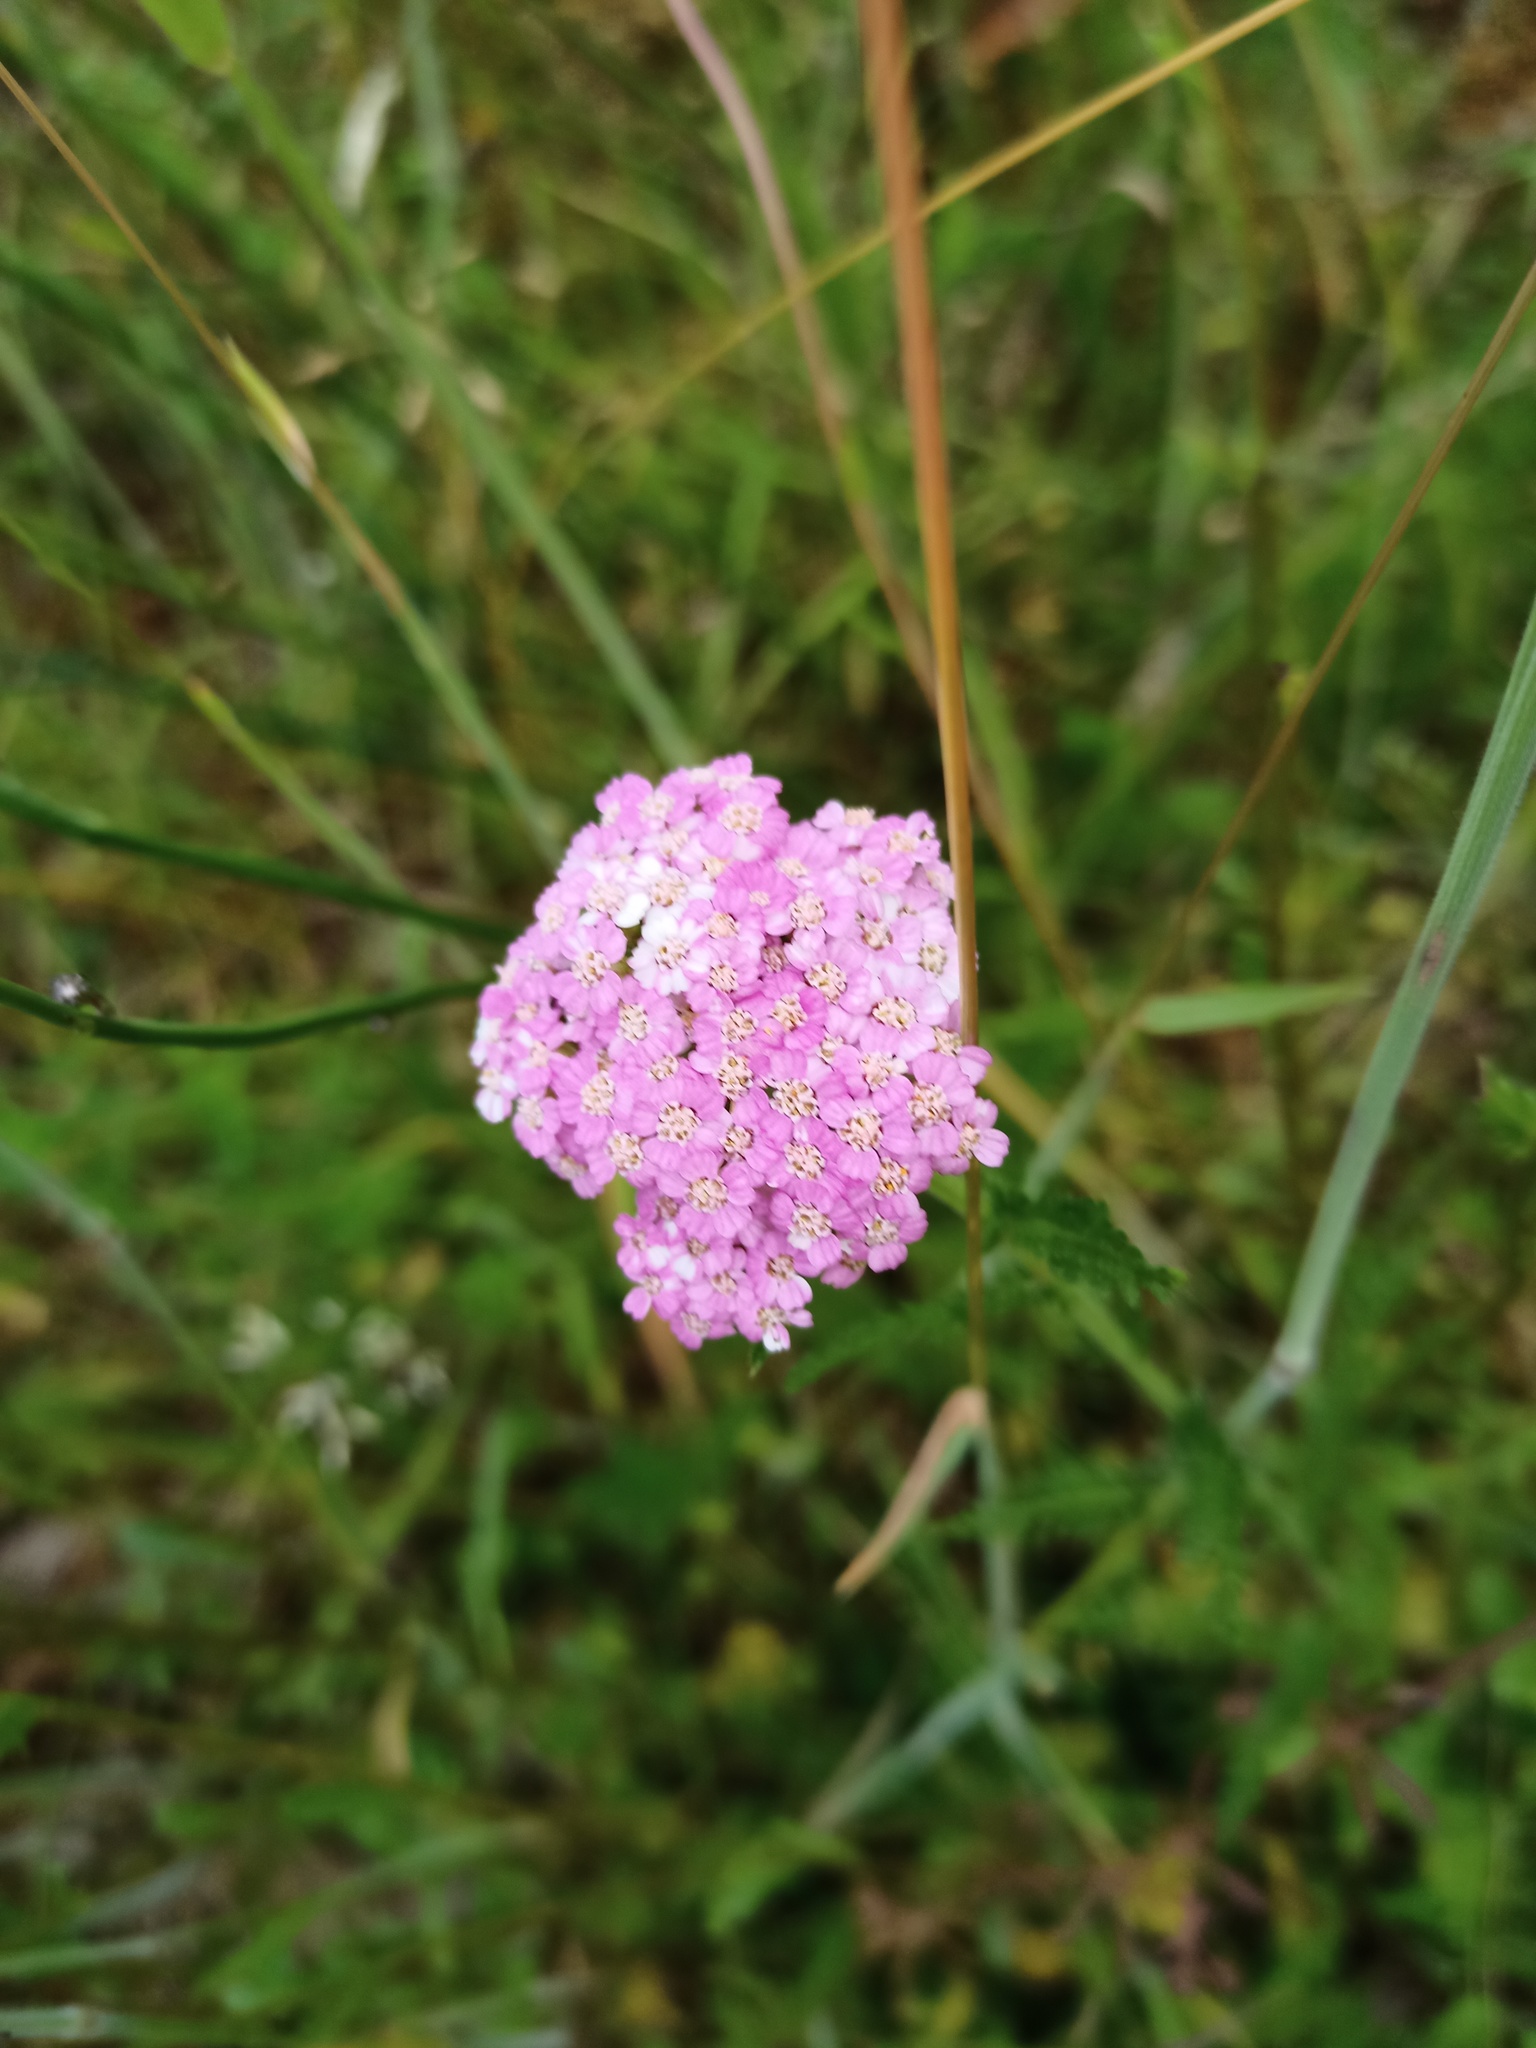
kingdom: Plantae
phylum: Tracheophyta
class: Magnoliopsida
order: Asterales
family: Asteraceae
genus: Achillea
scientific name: Achillea millefolium
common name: Yarrow
